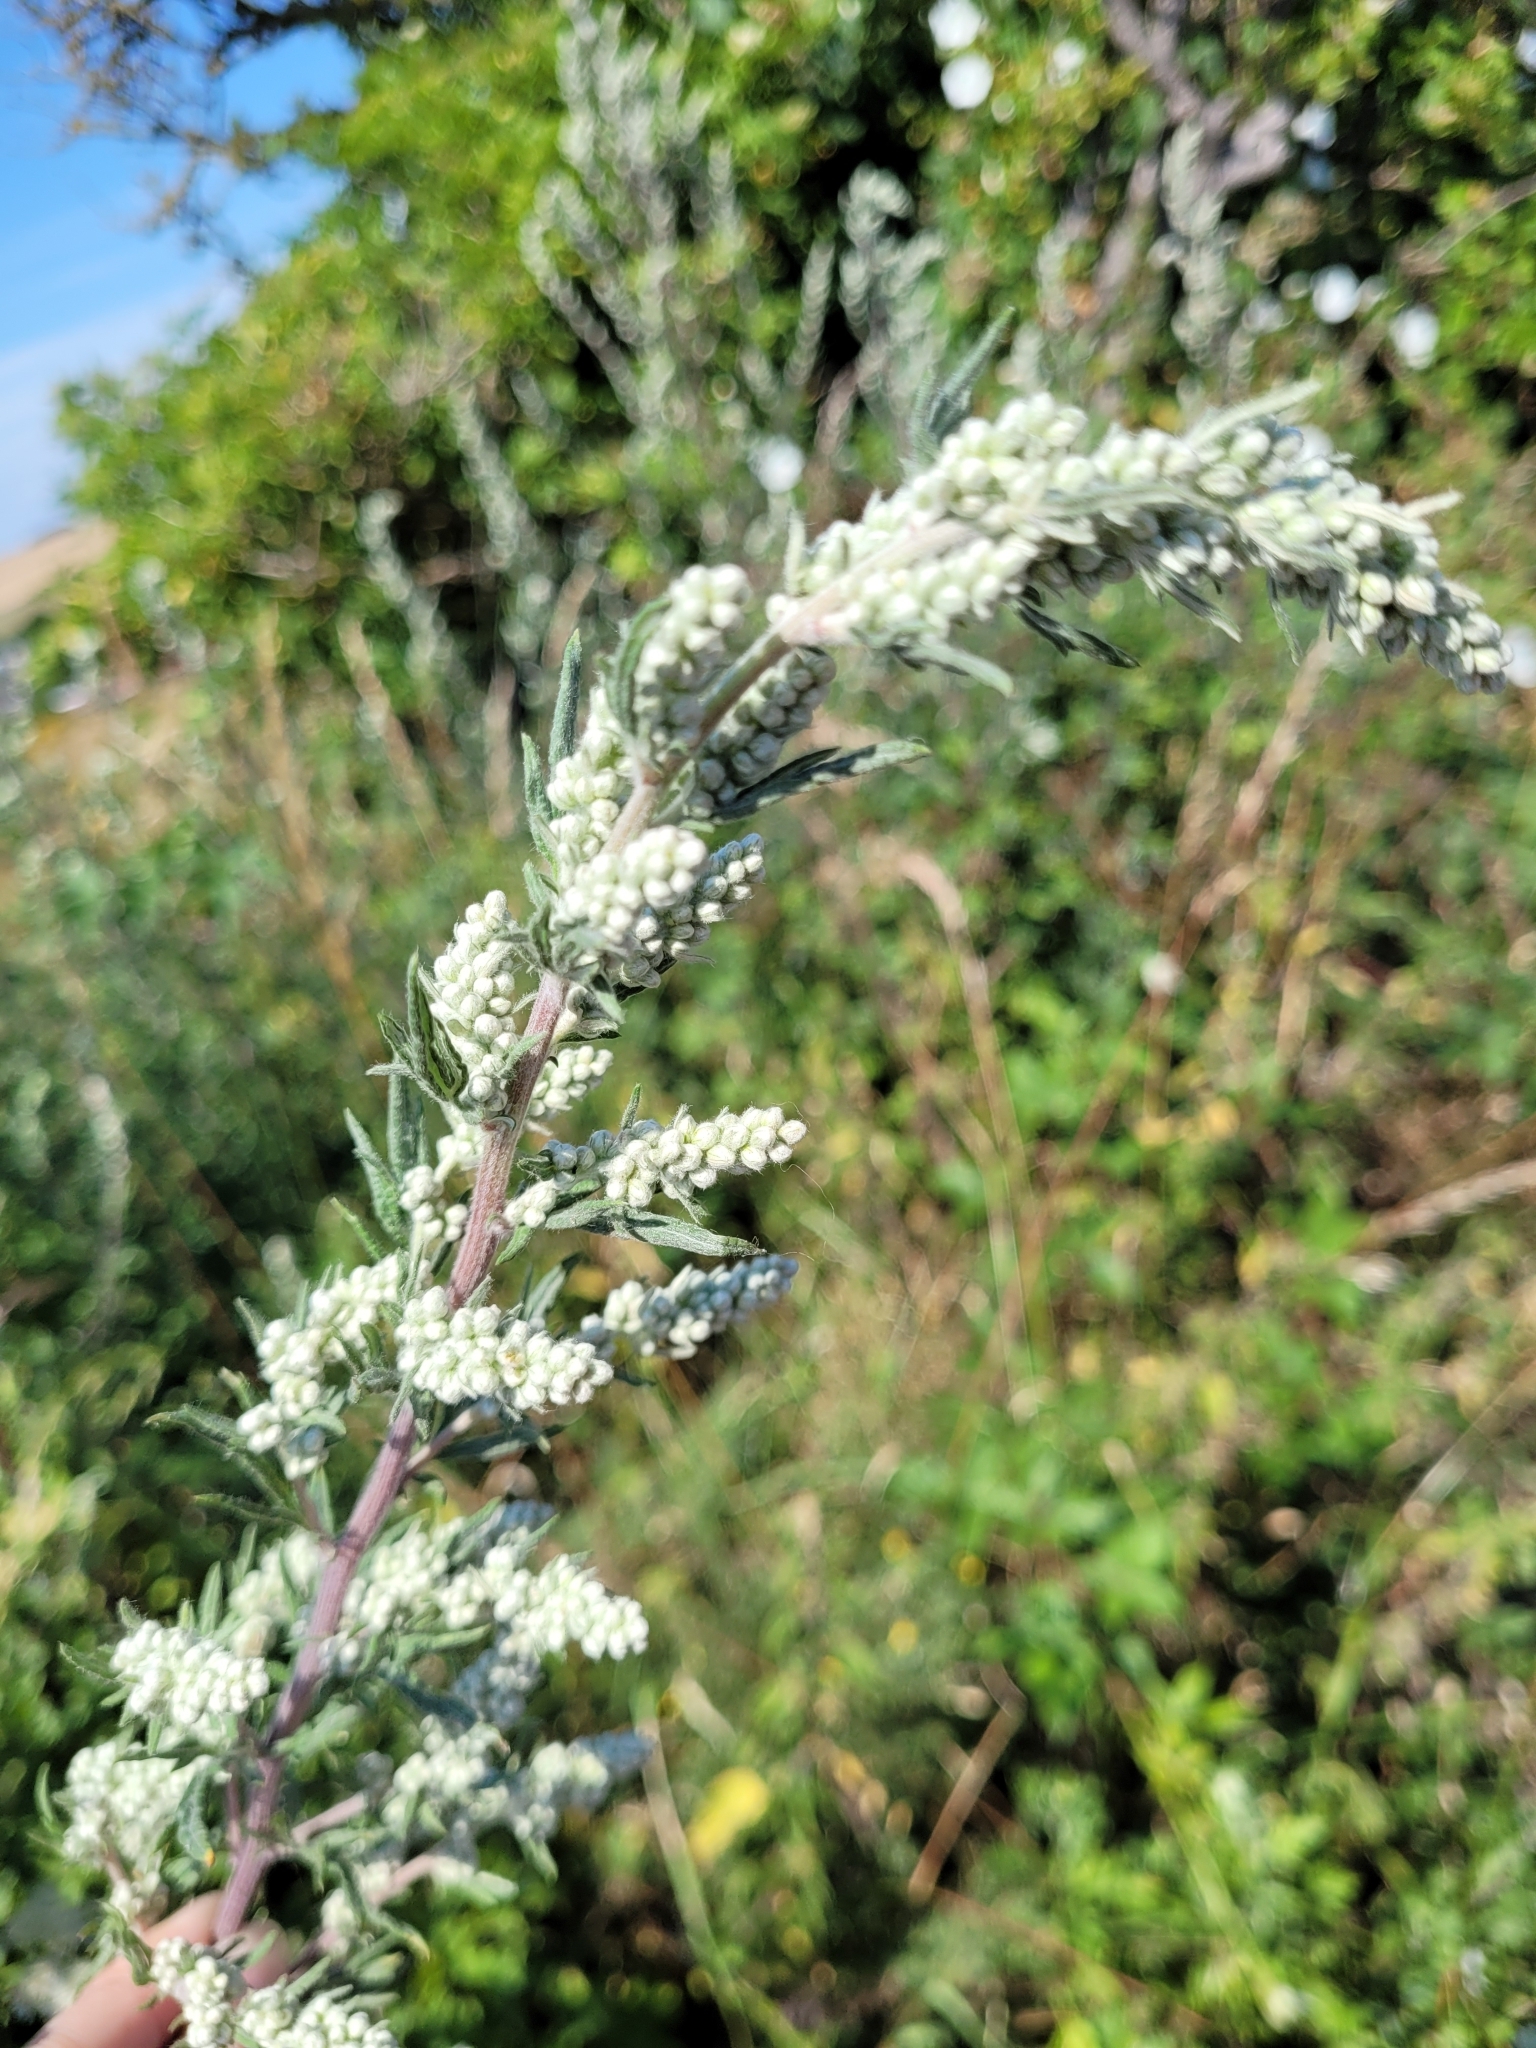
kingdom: Plantae
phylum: Tracheophyta
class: Magnoliopsida
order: Asterales
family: Asteraceae
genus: Artemisia
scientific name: Artemisia vulgaris
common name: Mugwort
